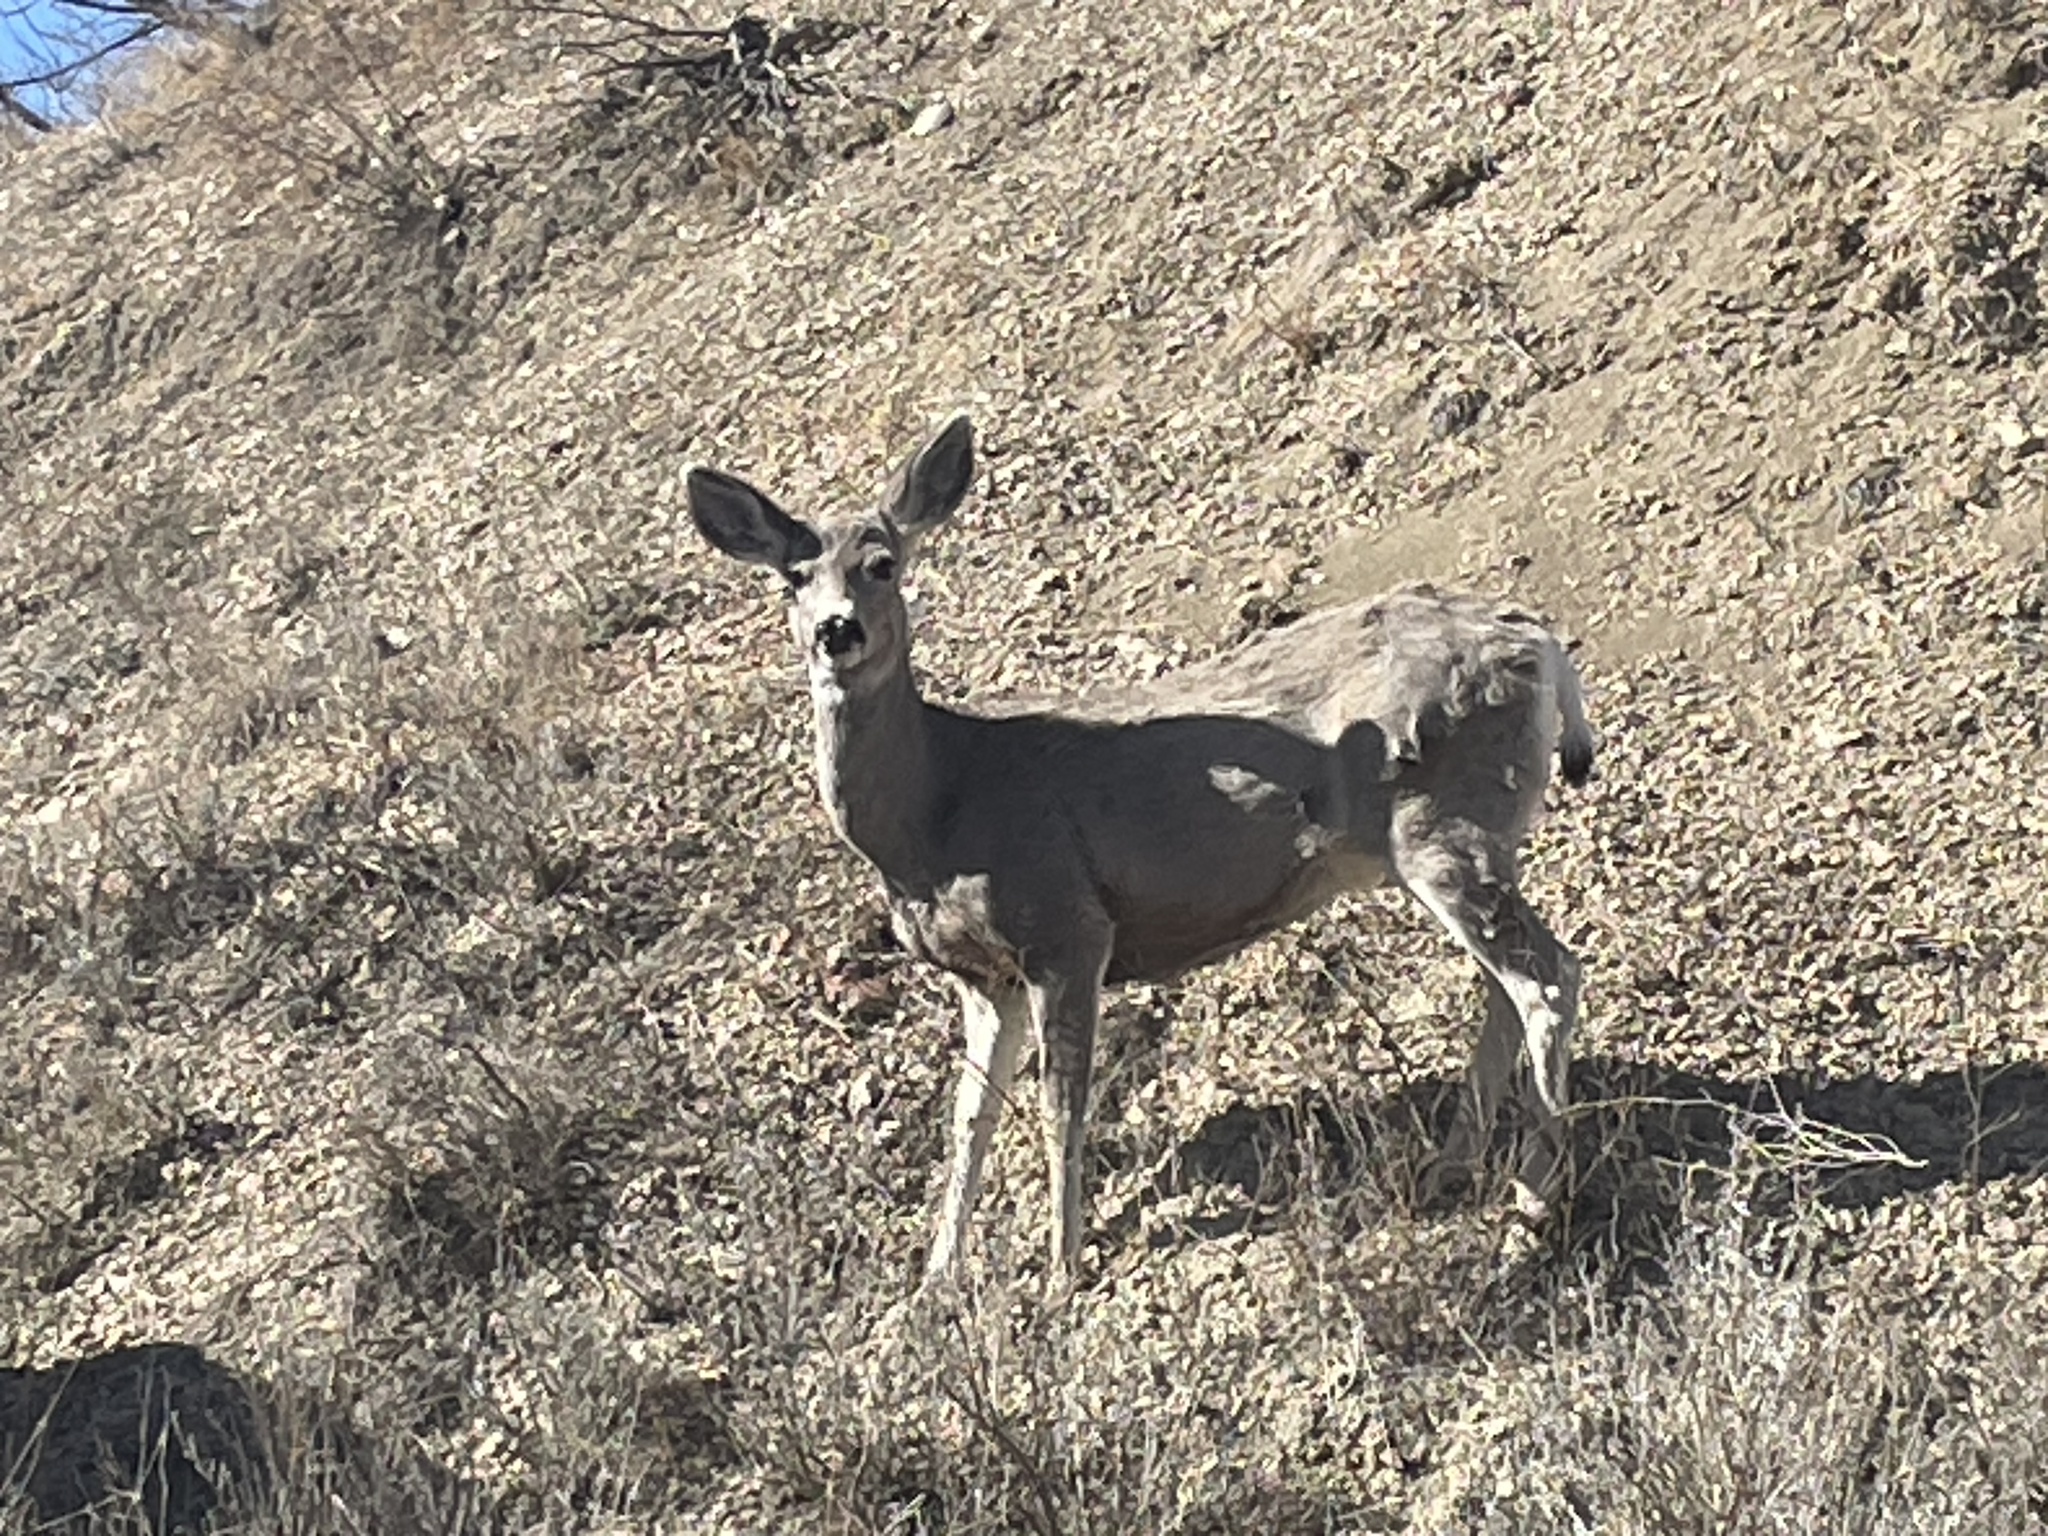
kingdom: Animalia
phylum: Chordata
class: Mammalia
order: Artiodactyla
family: Cervidae
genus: Odocoileus
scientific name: Odocoileus hemionus
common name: Mule deer
